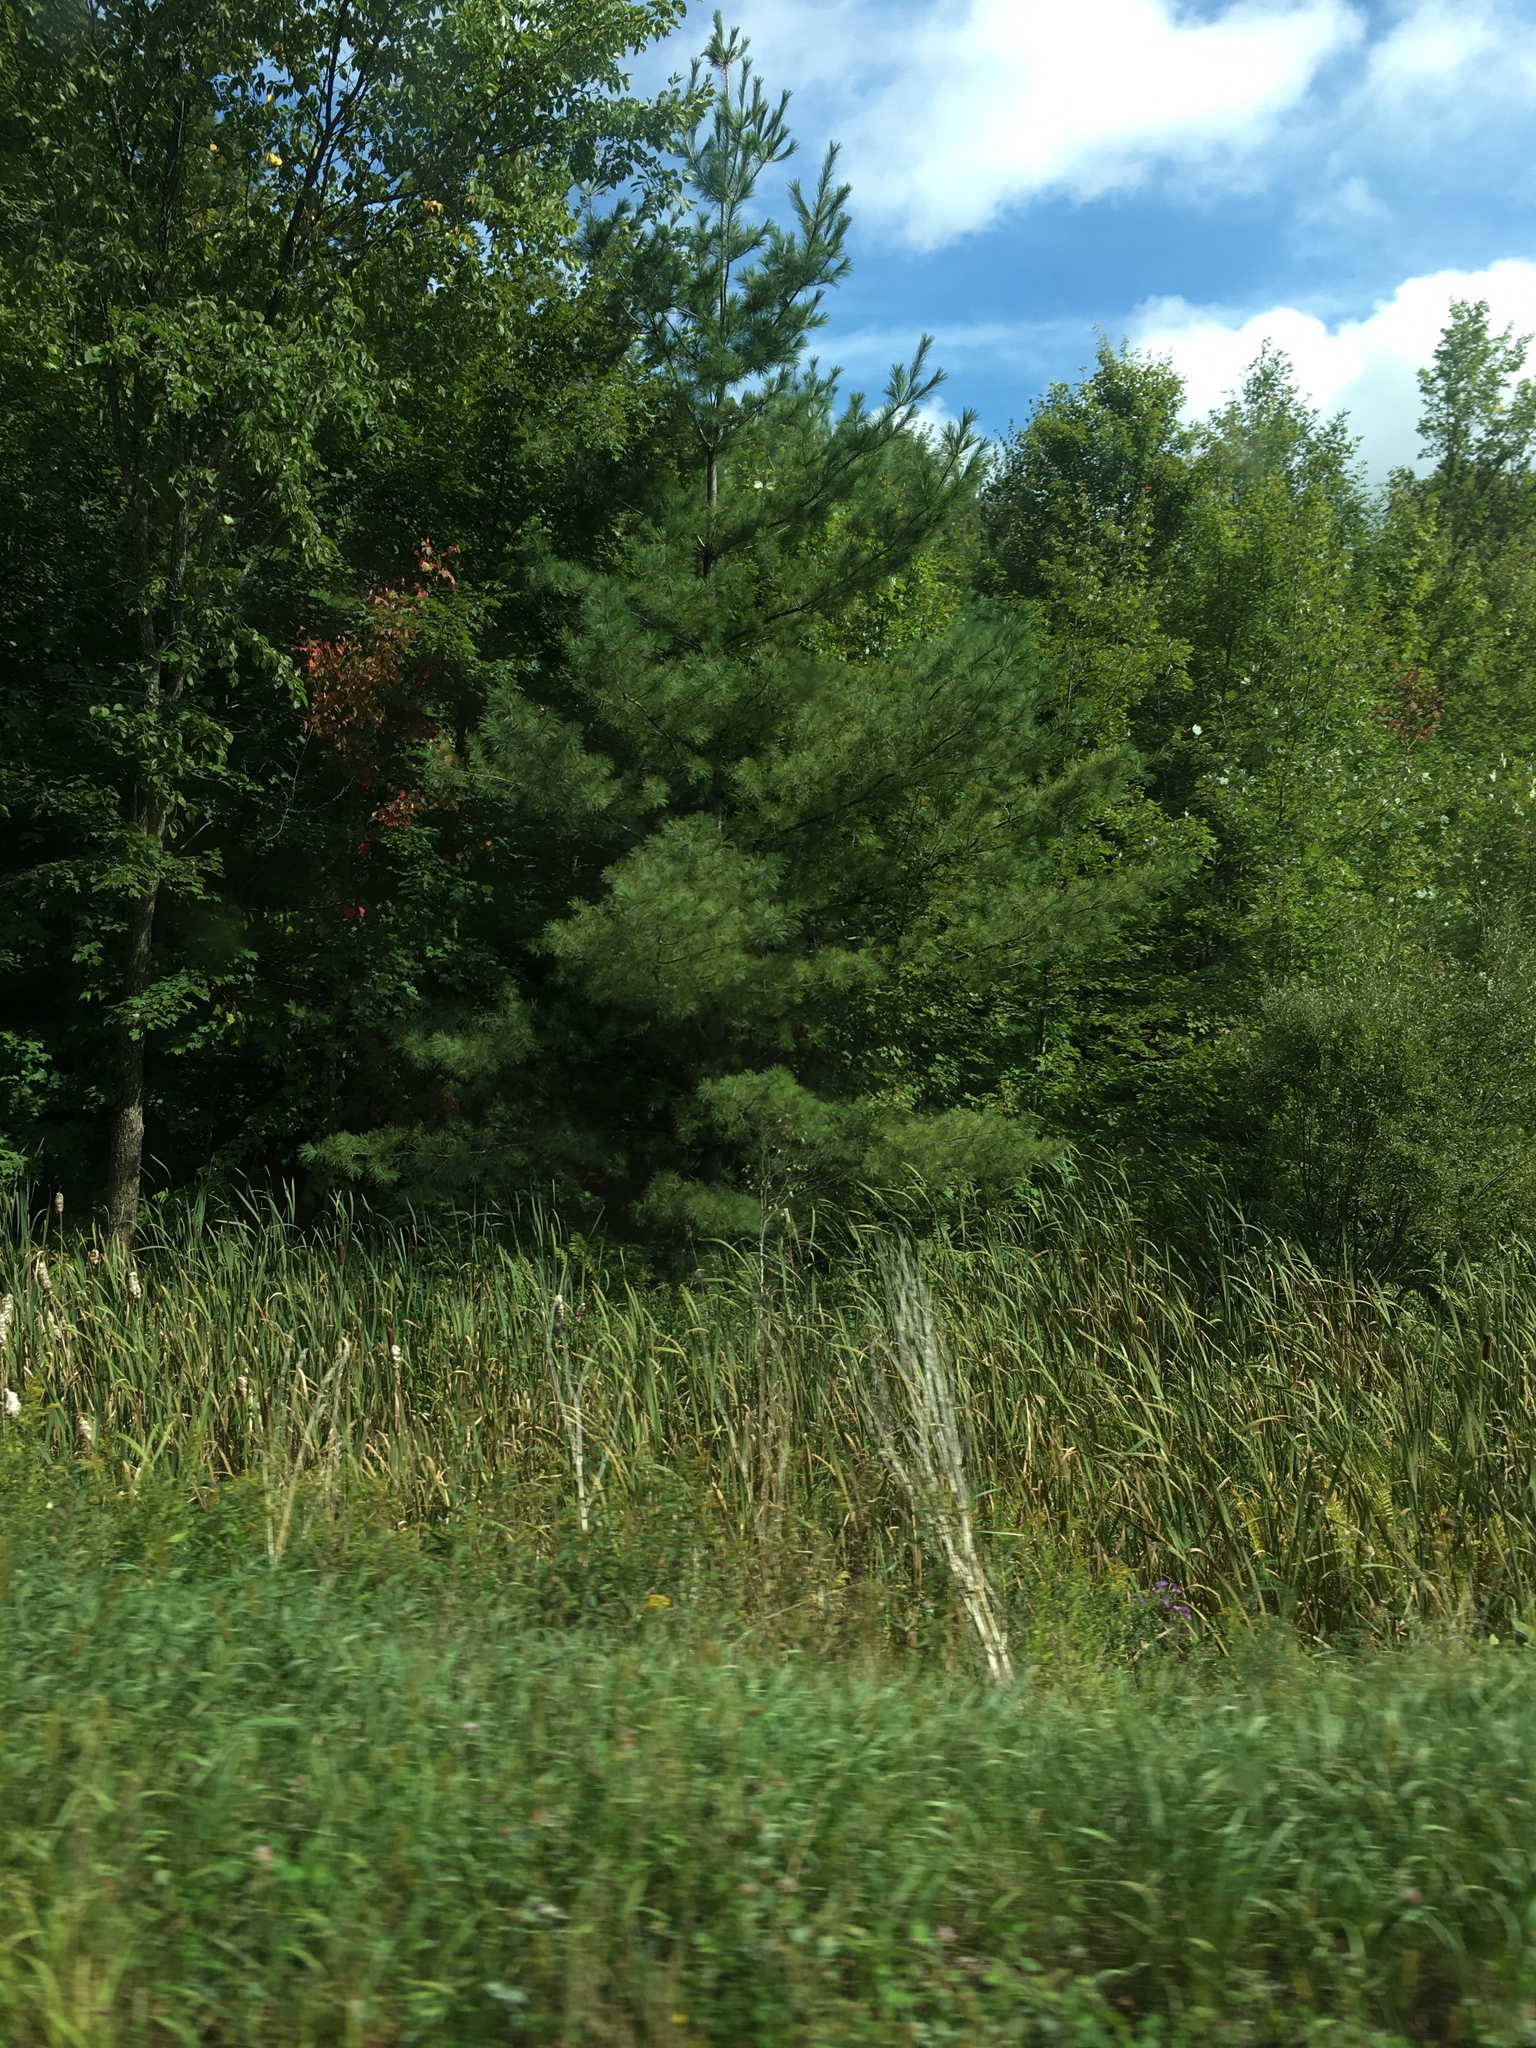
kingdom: Plantae
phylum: Tracheophyta
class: Pinopsida
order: Pinales
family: Pinaceae
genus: Pinus
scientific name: Pinus strobus
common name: Weymouth pine
